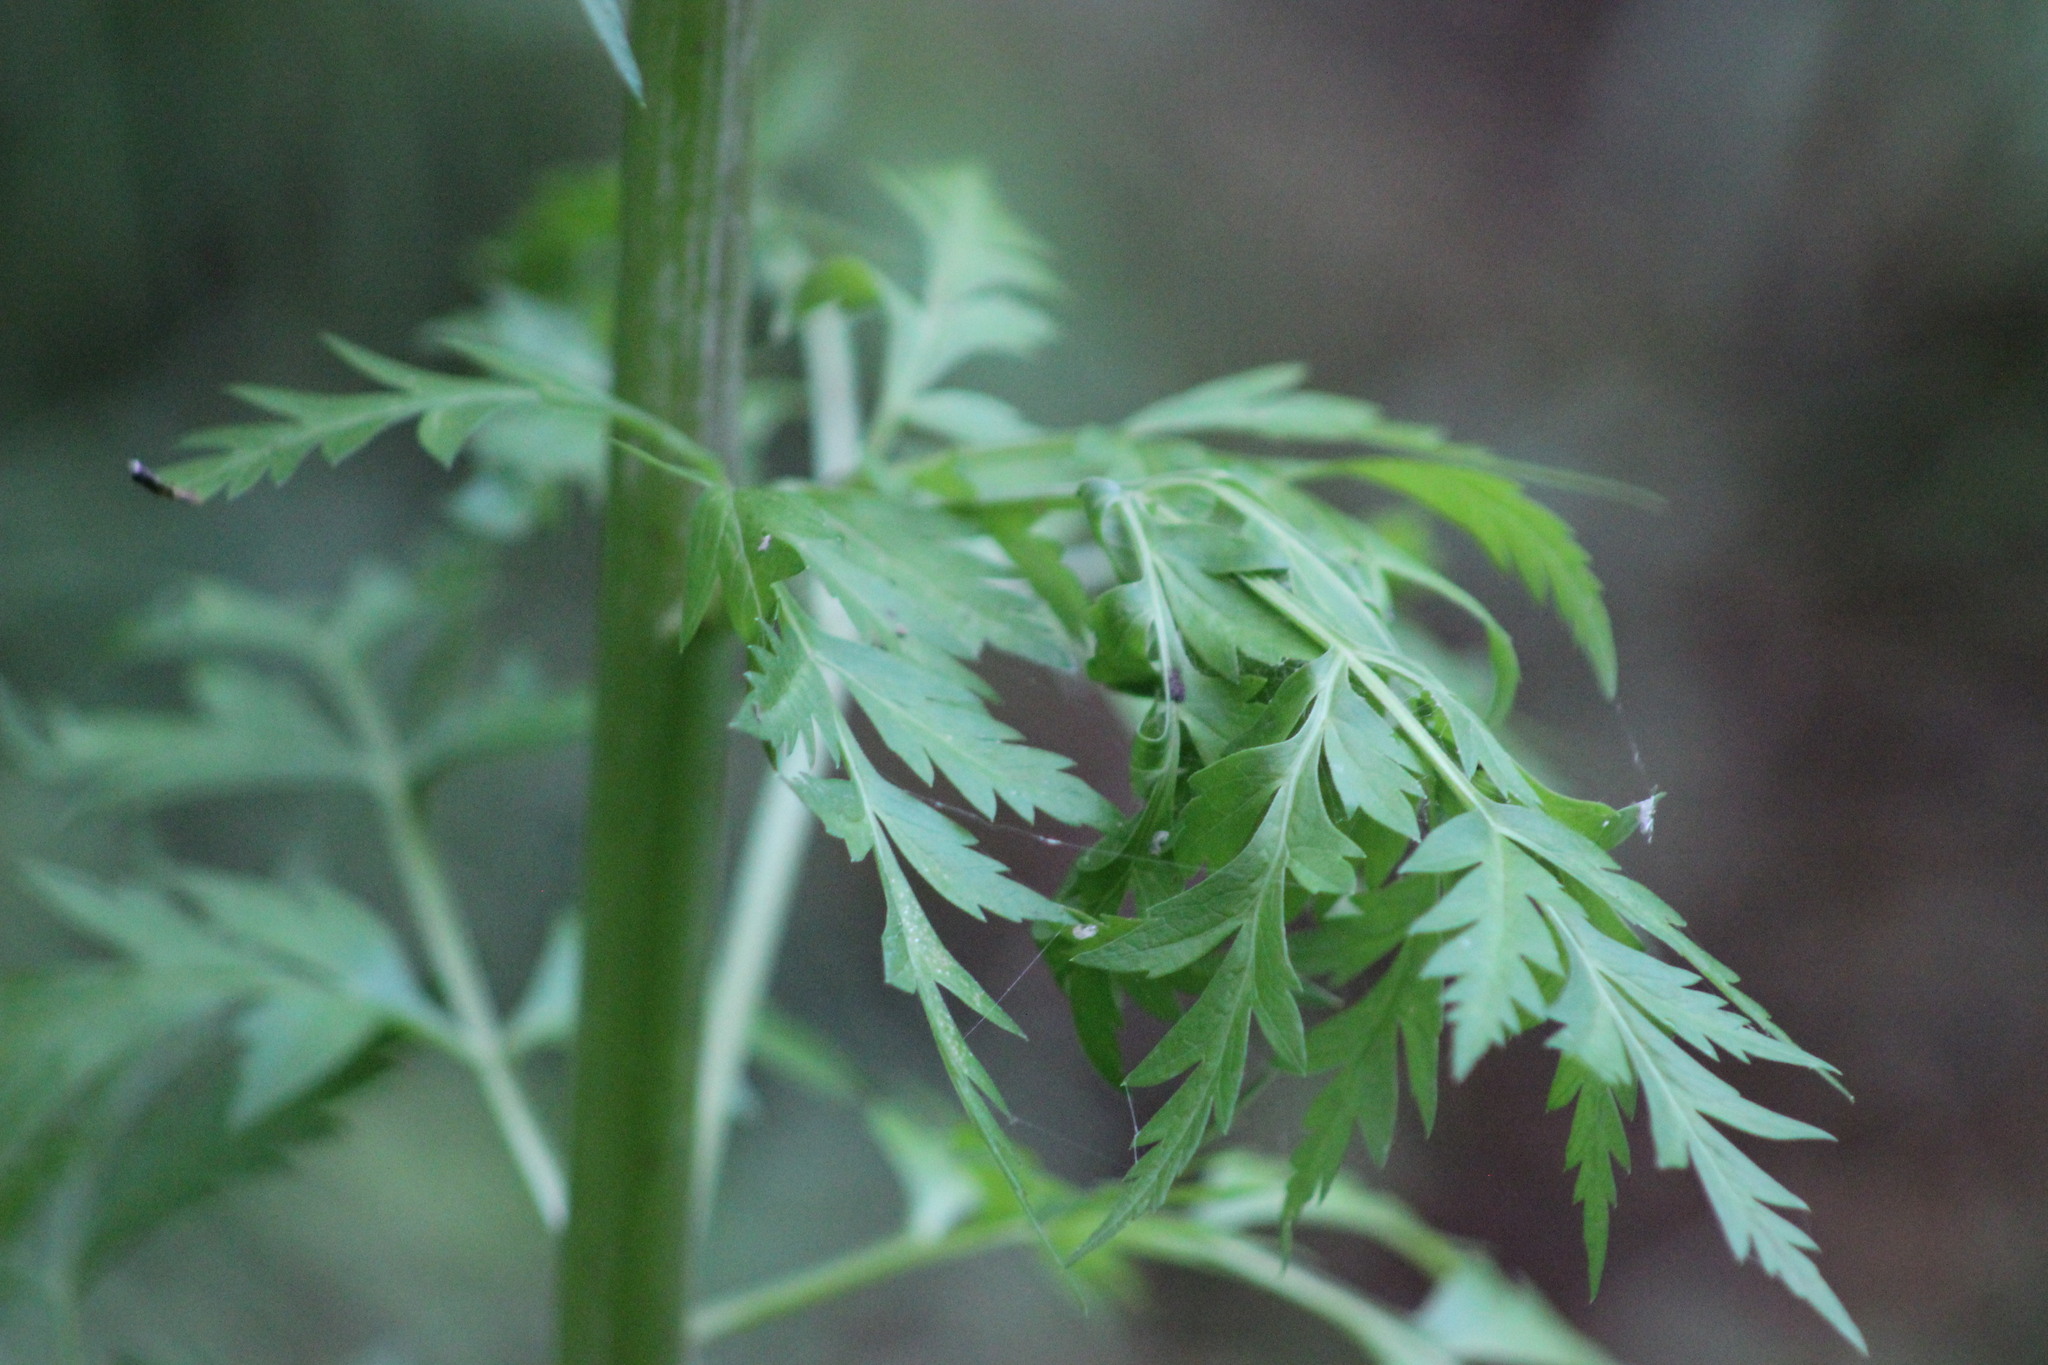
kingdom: Plantae
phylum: Tracheophyta
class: Magnoliopsida
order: Apiales
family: Apiaceae
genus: Pleurospermum
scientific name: Pleurospermum uralense
